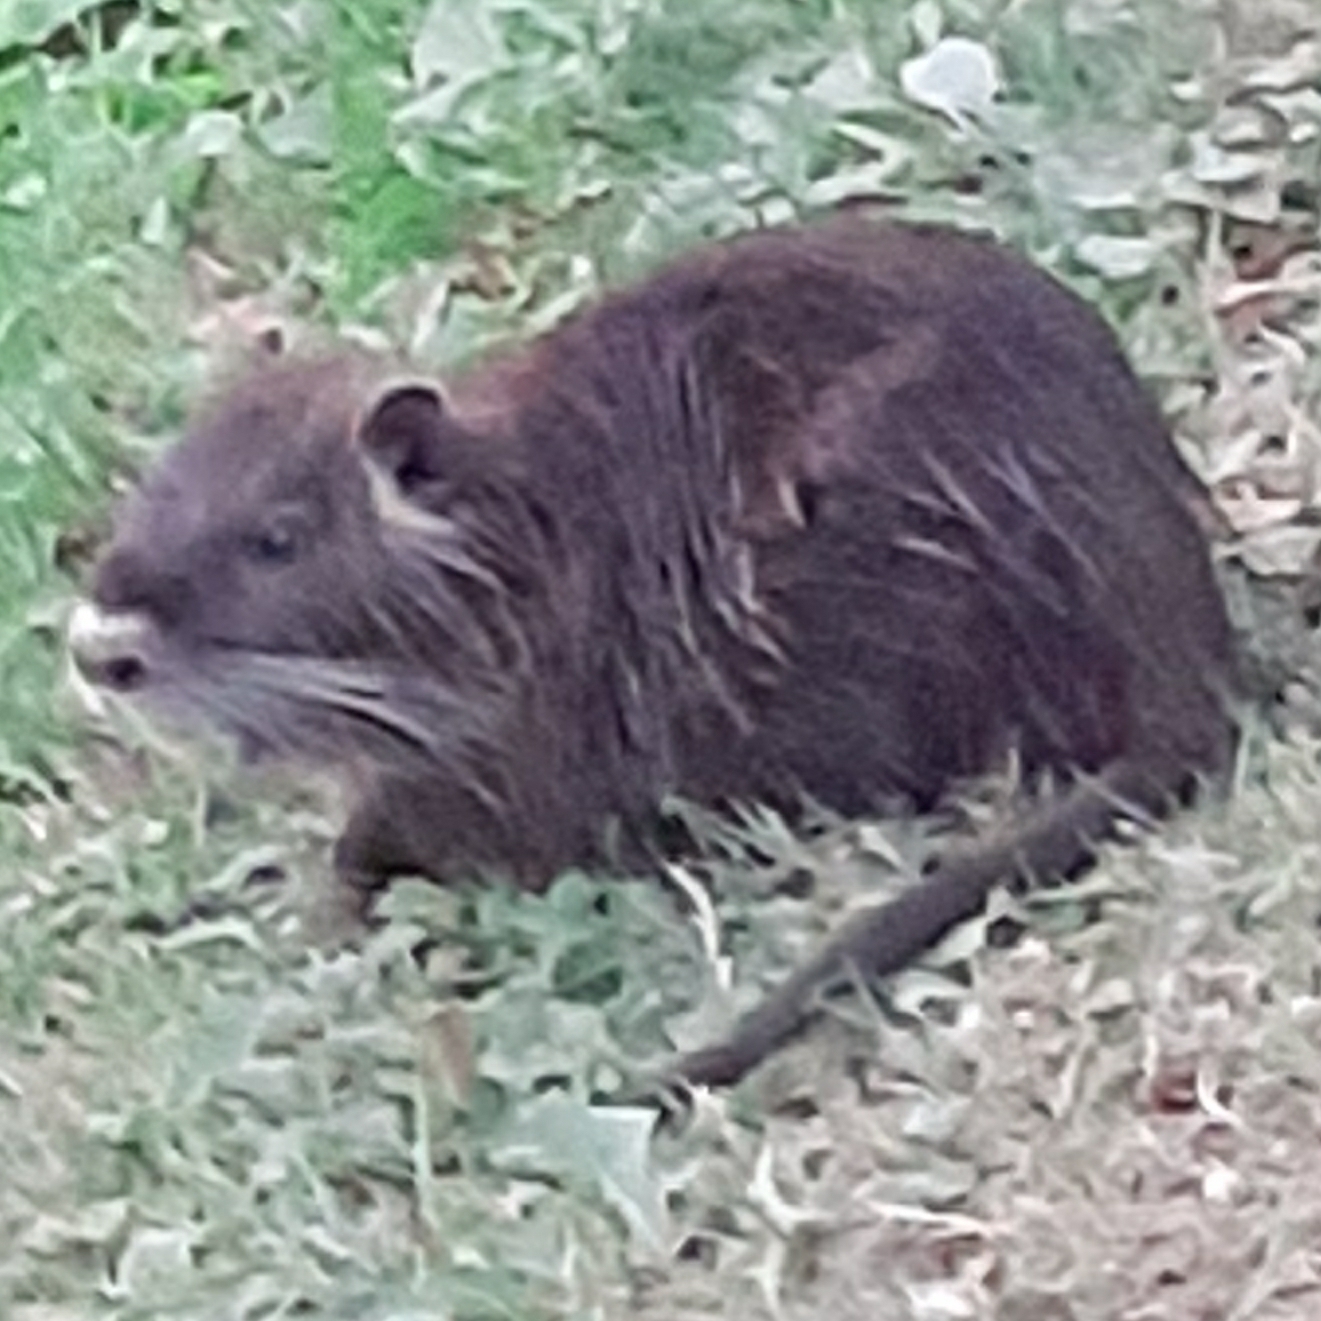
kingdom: Animalia
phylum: Chordata
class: Mammalia
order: Rodentia
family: Myocastoridae
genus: Myocastor
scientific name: Myocastor coypus
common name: Coypu
